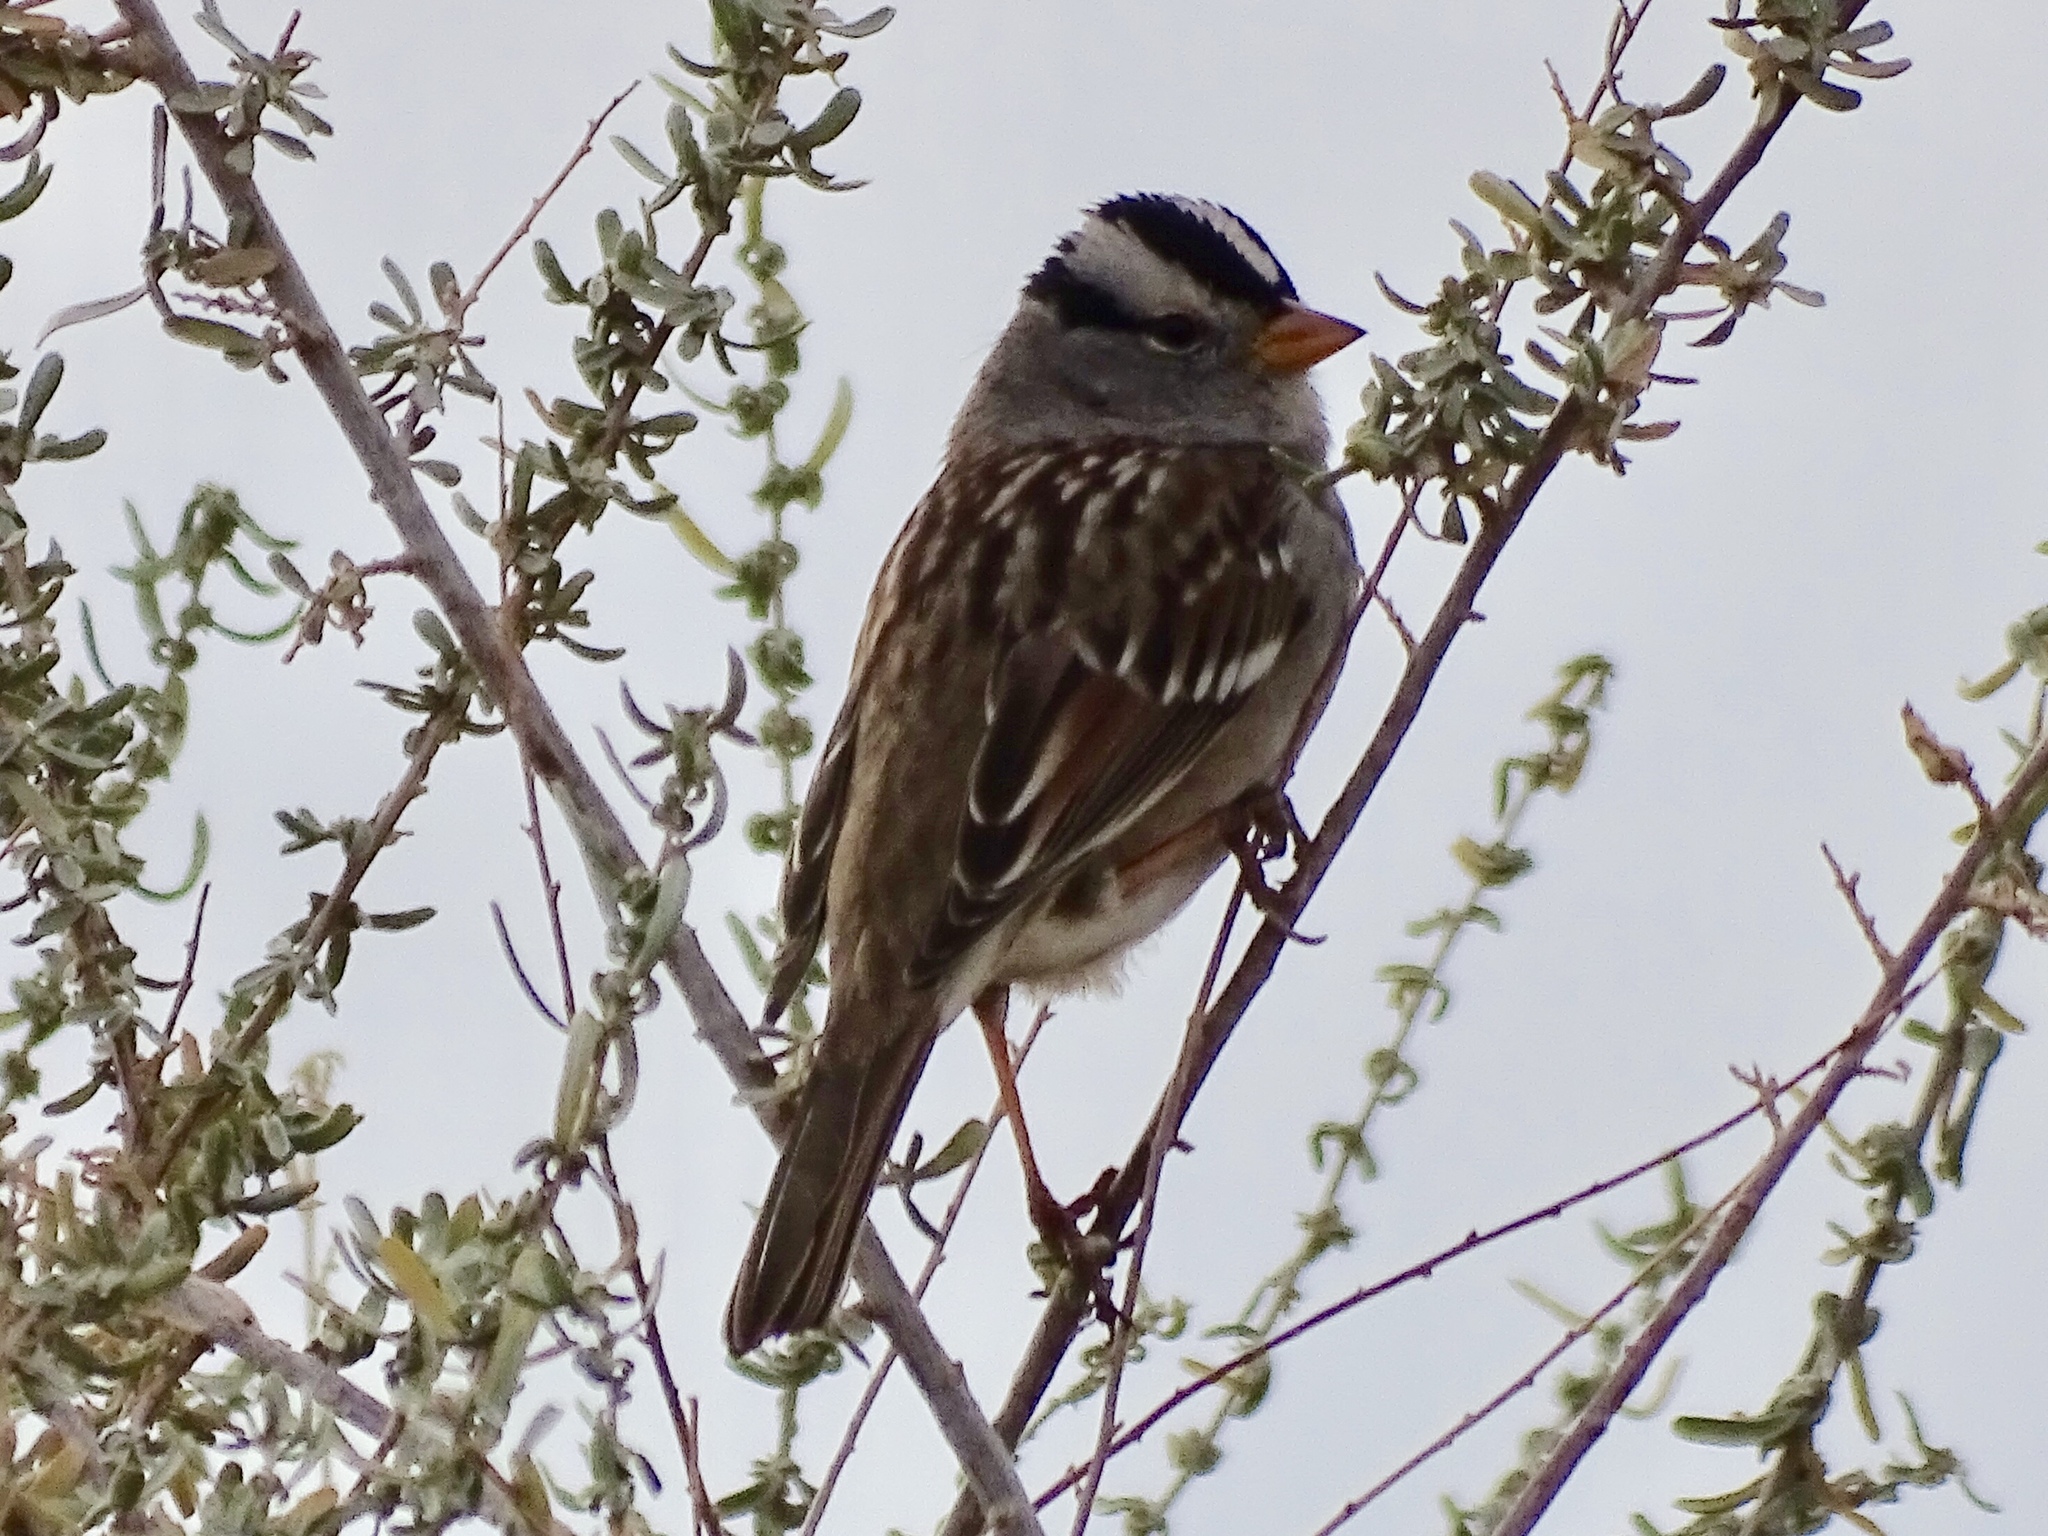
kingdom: Animalia
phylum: Chordata
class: Aves
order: Passeriformes
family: Passerellidae
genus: Zonotrichia
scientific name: Zonotrichia leucophrys
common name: White-crowned sparrow
